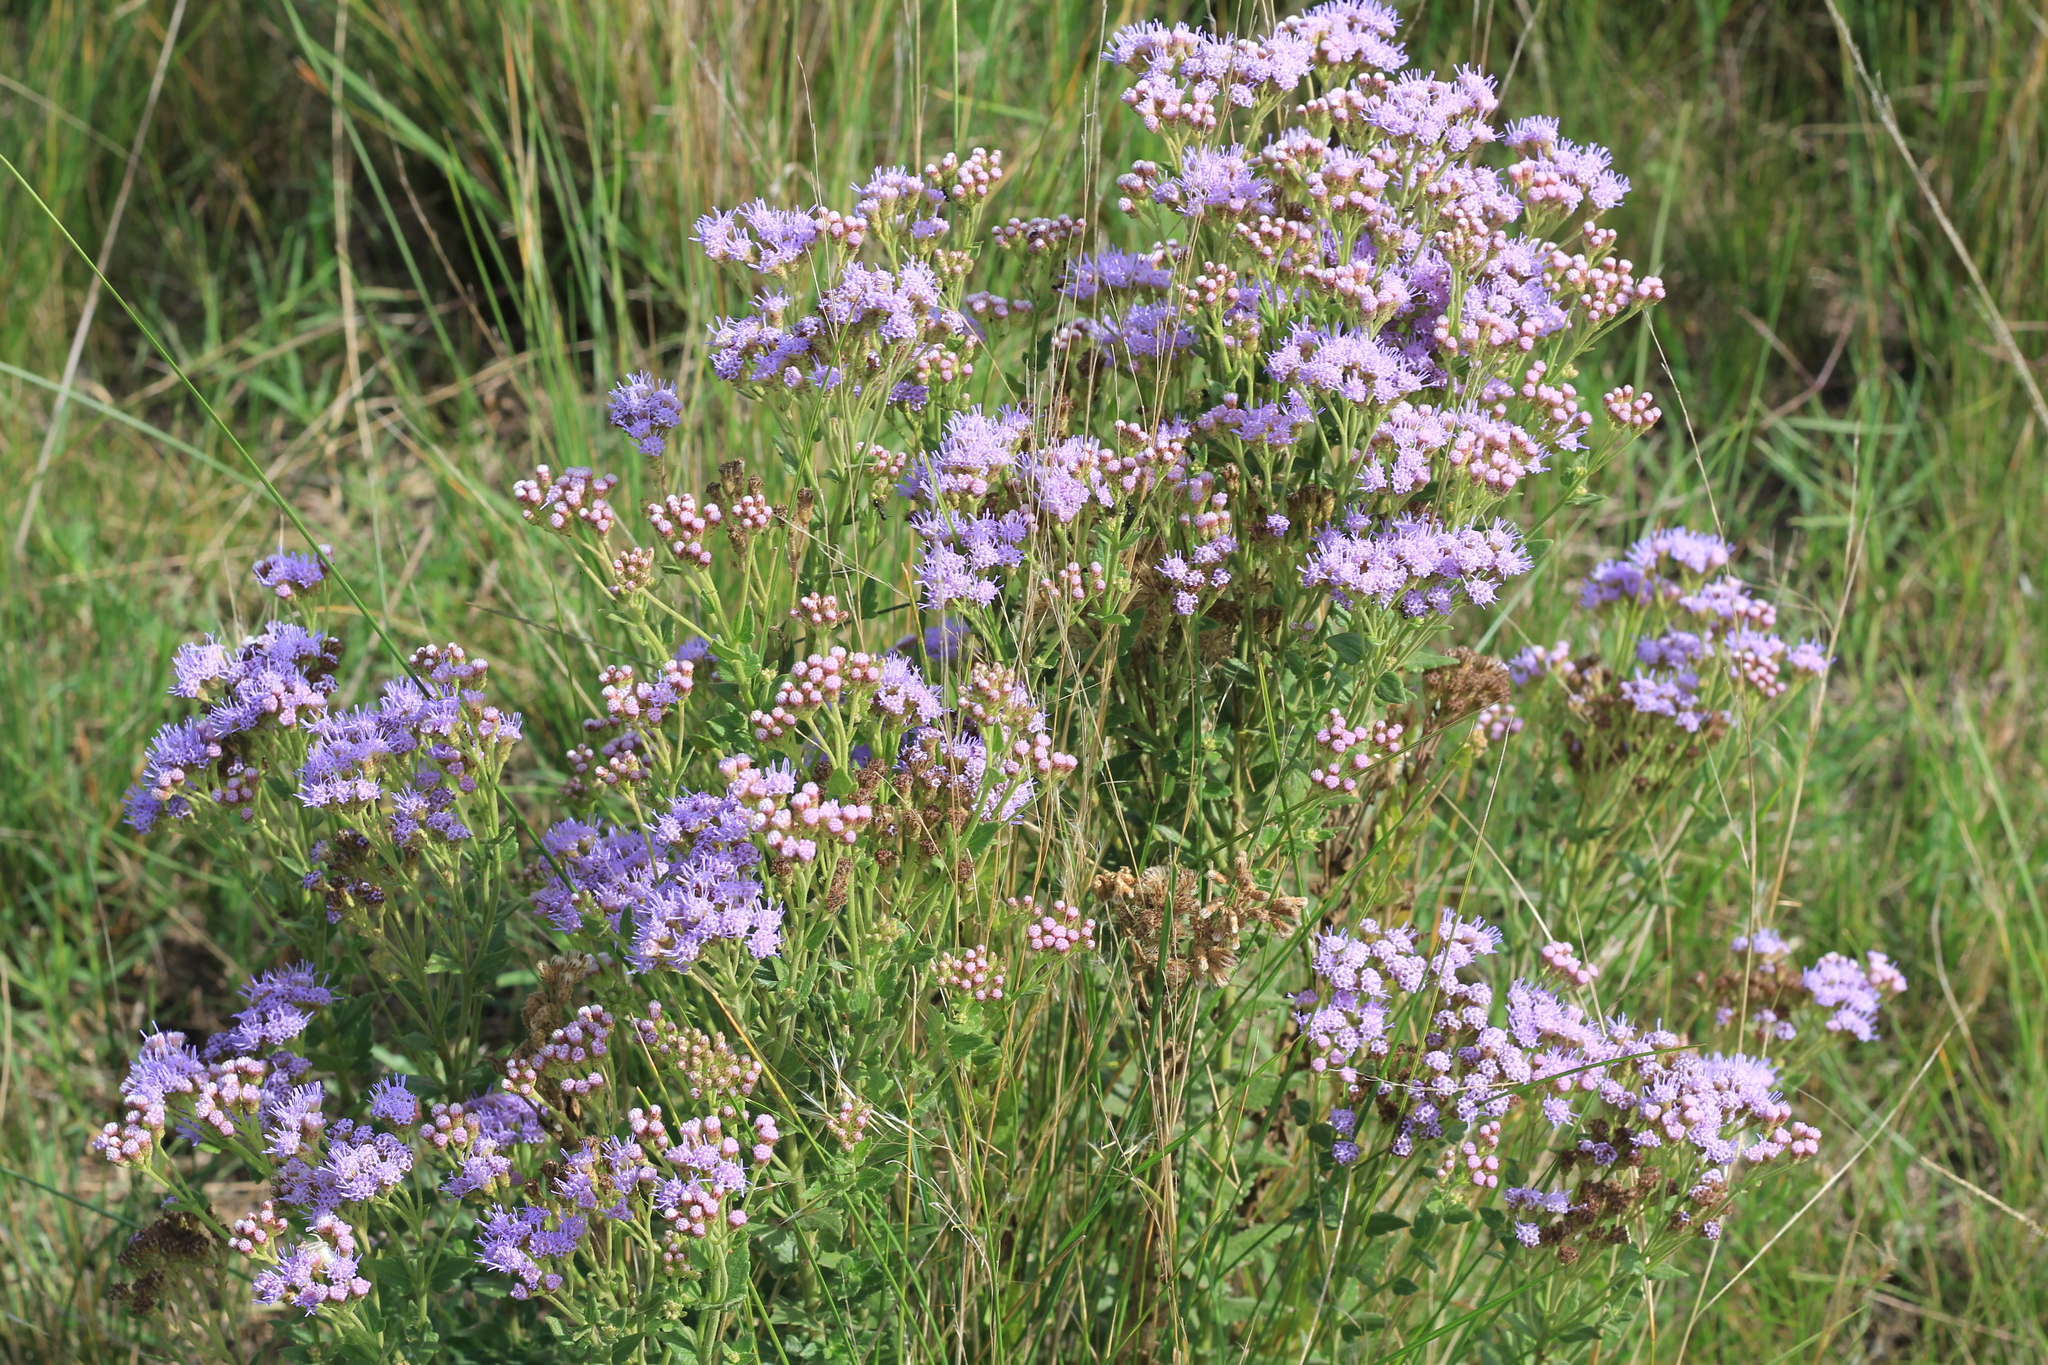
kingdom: Plantae
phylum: Tracheophyta
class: Magnoliopsida
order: Asterales
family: Asteraceae
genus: Chromolaena
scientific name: Chromolaena hirsuta
